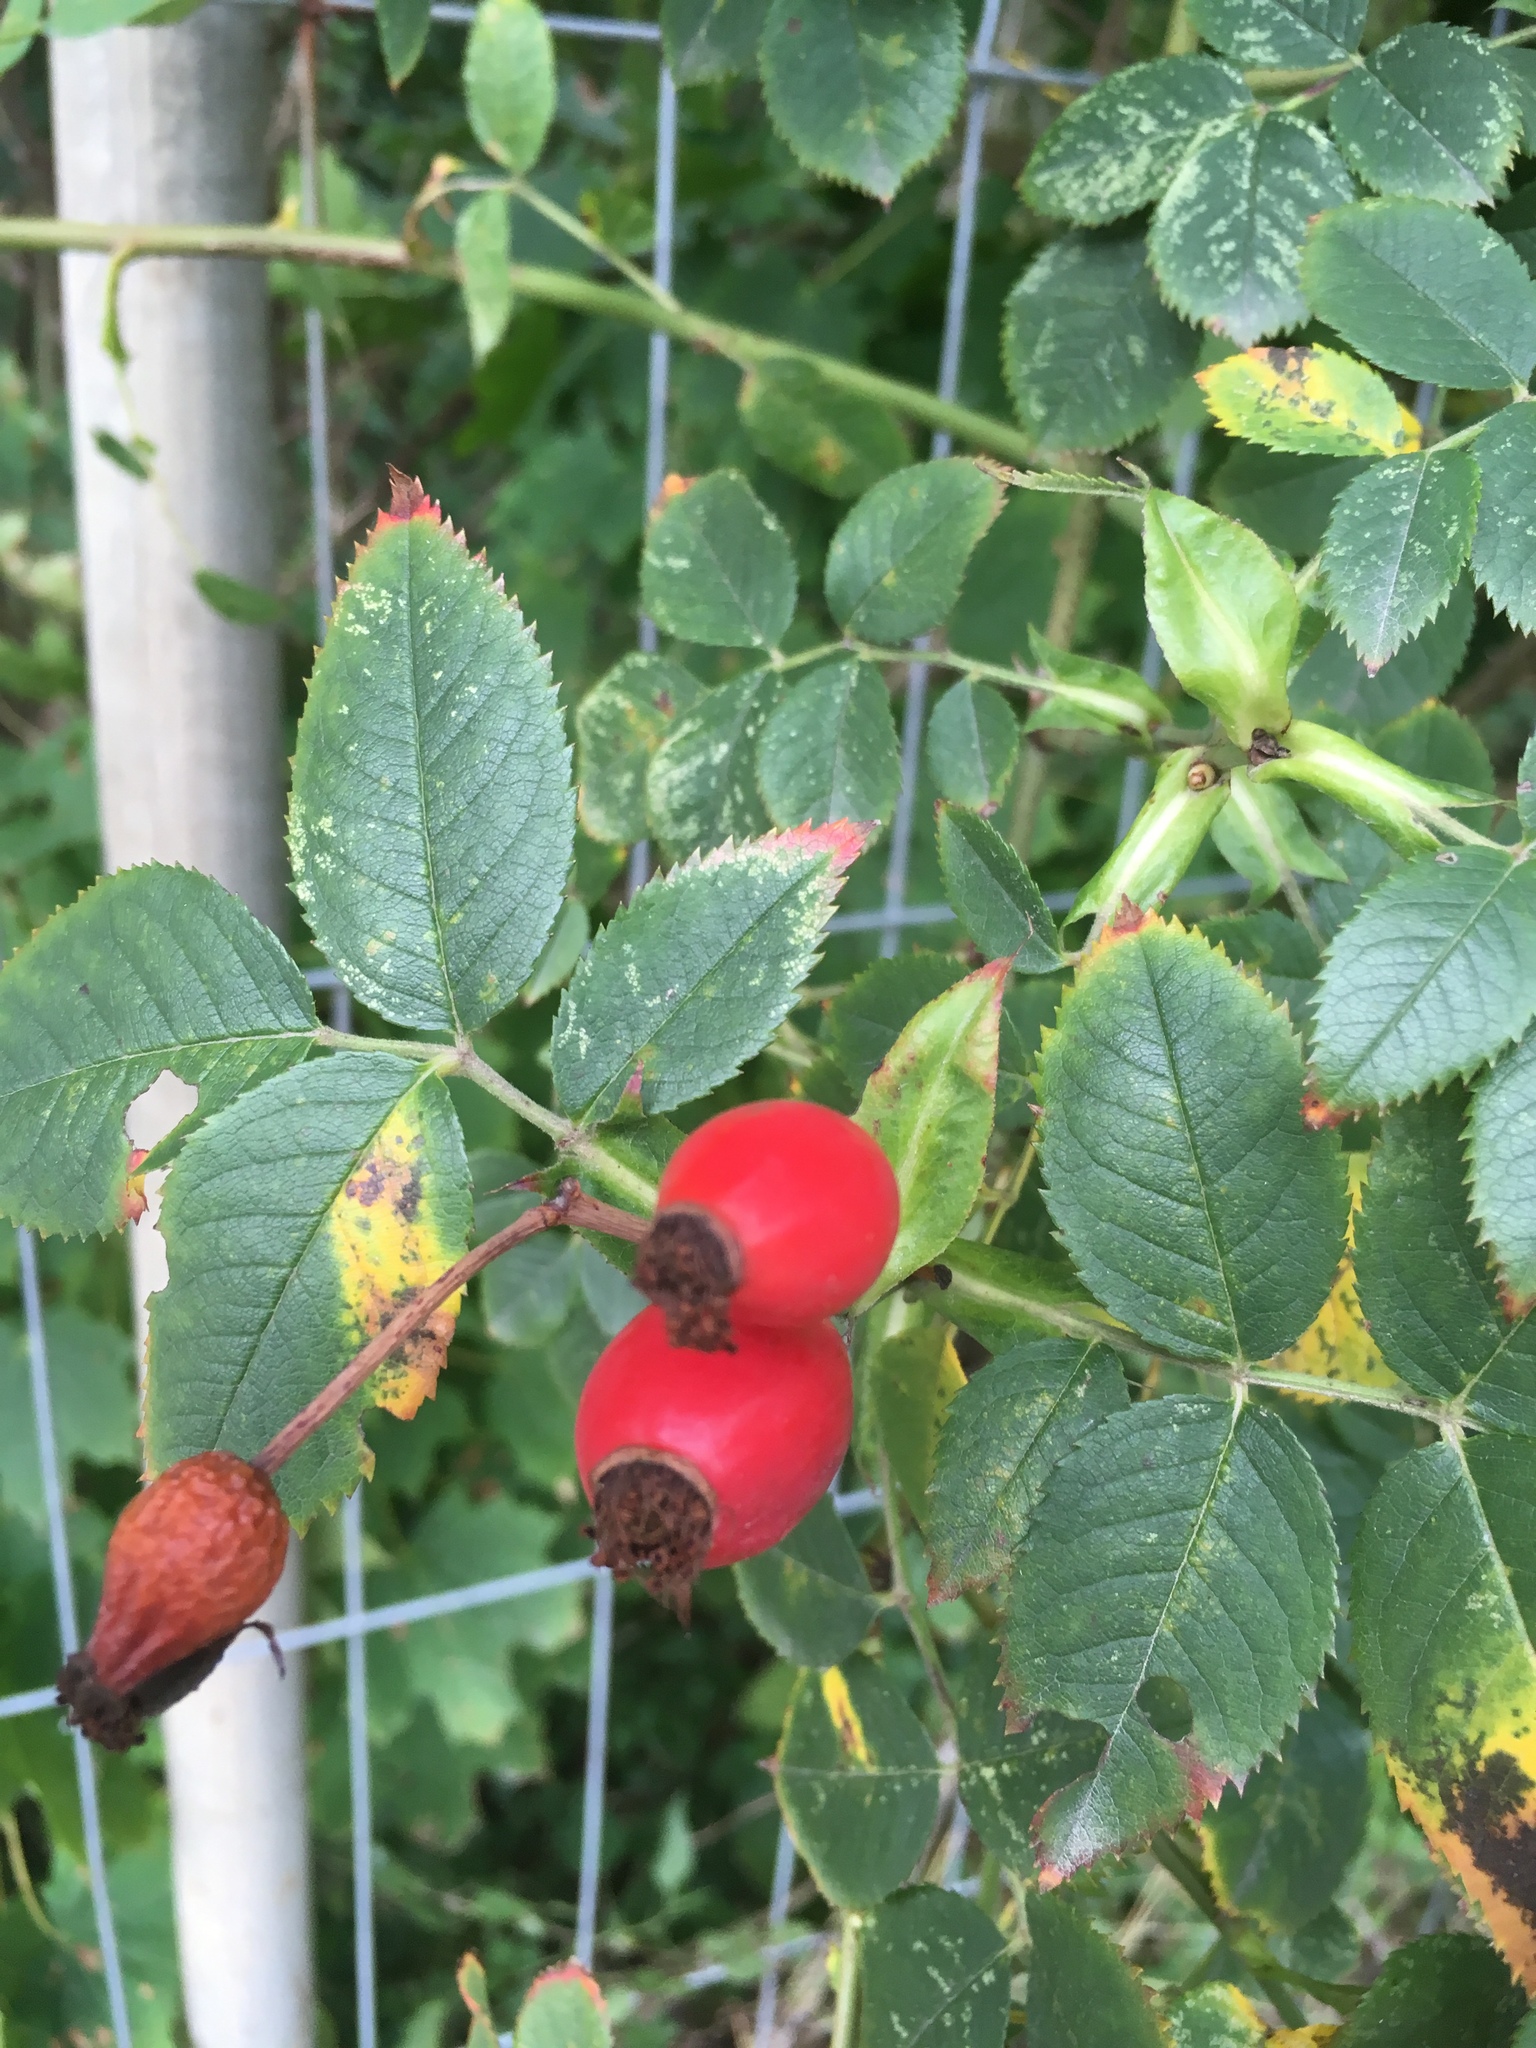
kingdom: Plantae
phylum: Tracheophyta
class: Magnoliopsida
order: Rosales
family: Rosaceae
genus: Rosa
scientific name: Rosa canina
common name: Dog rose
